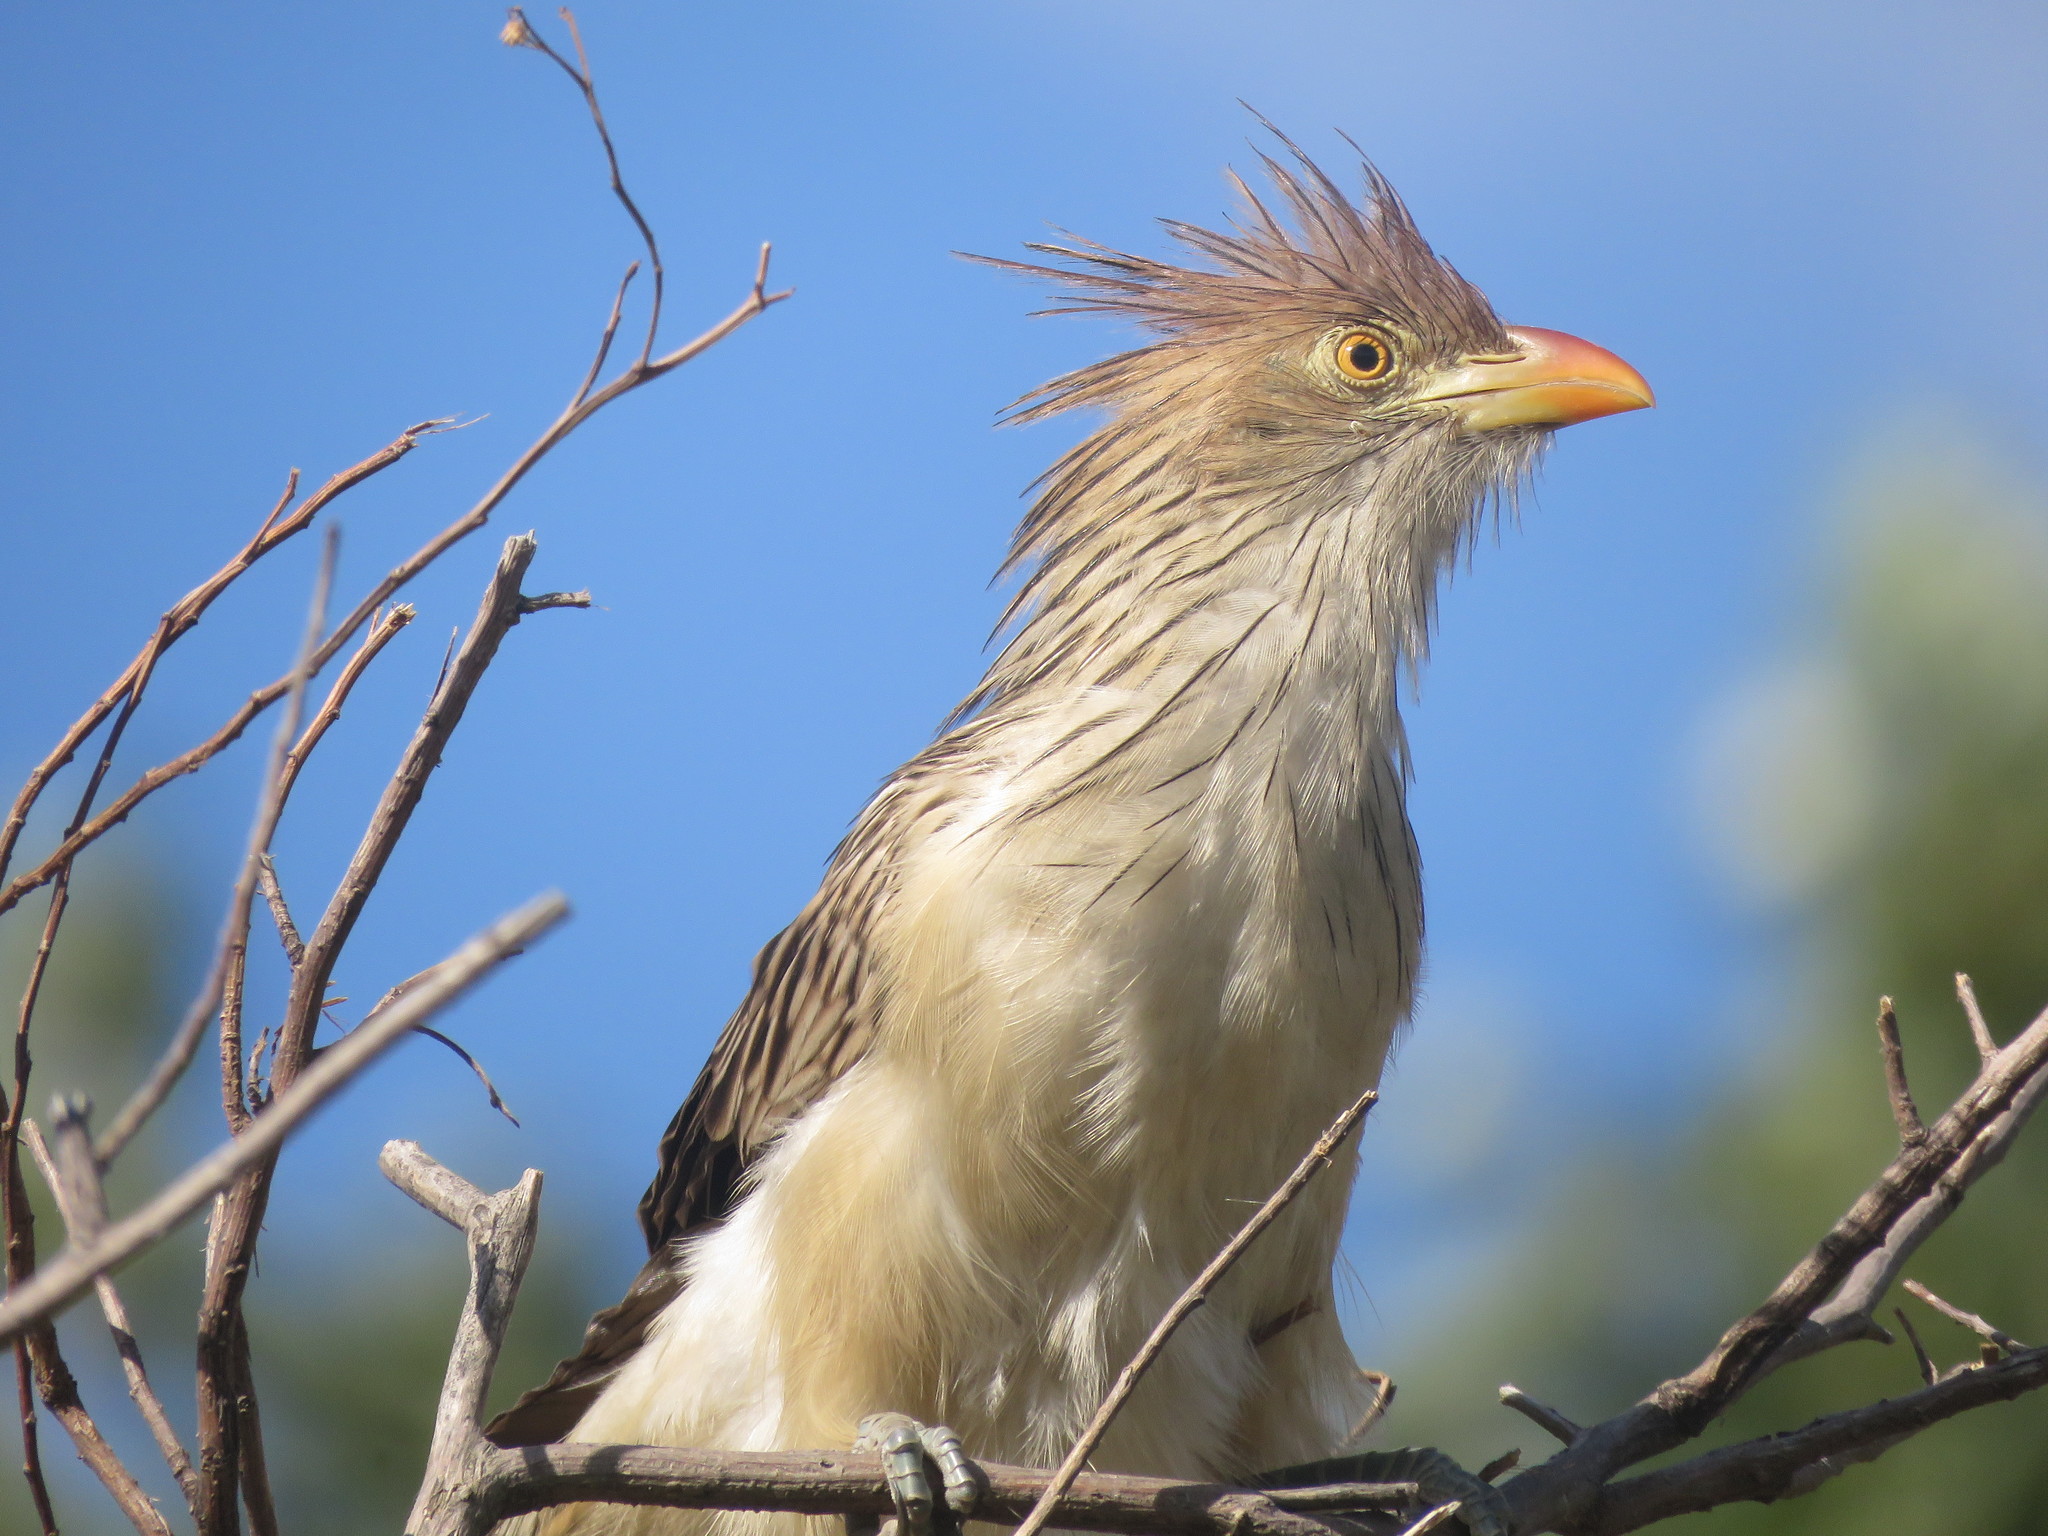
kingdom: Animalia
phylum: Chordata
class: Aves
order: Cuculiformes
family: Cuculidae
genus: Guira
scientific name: Guira guira
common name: Guira cuckoo
